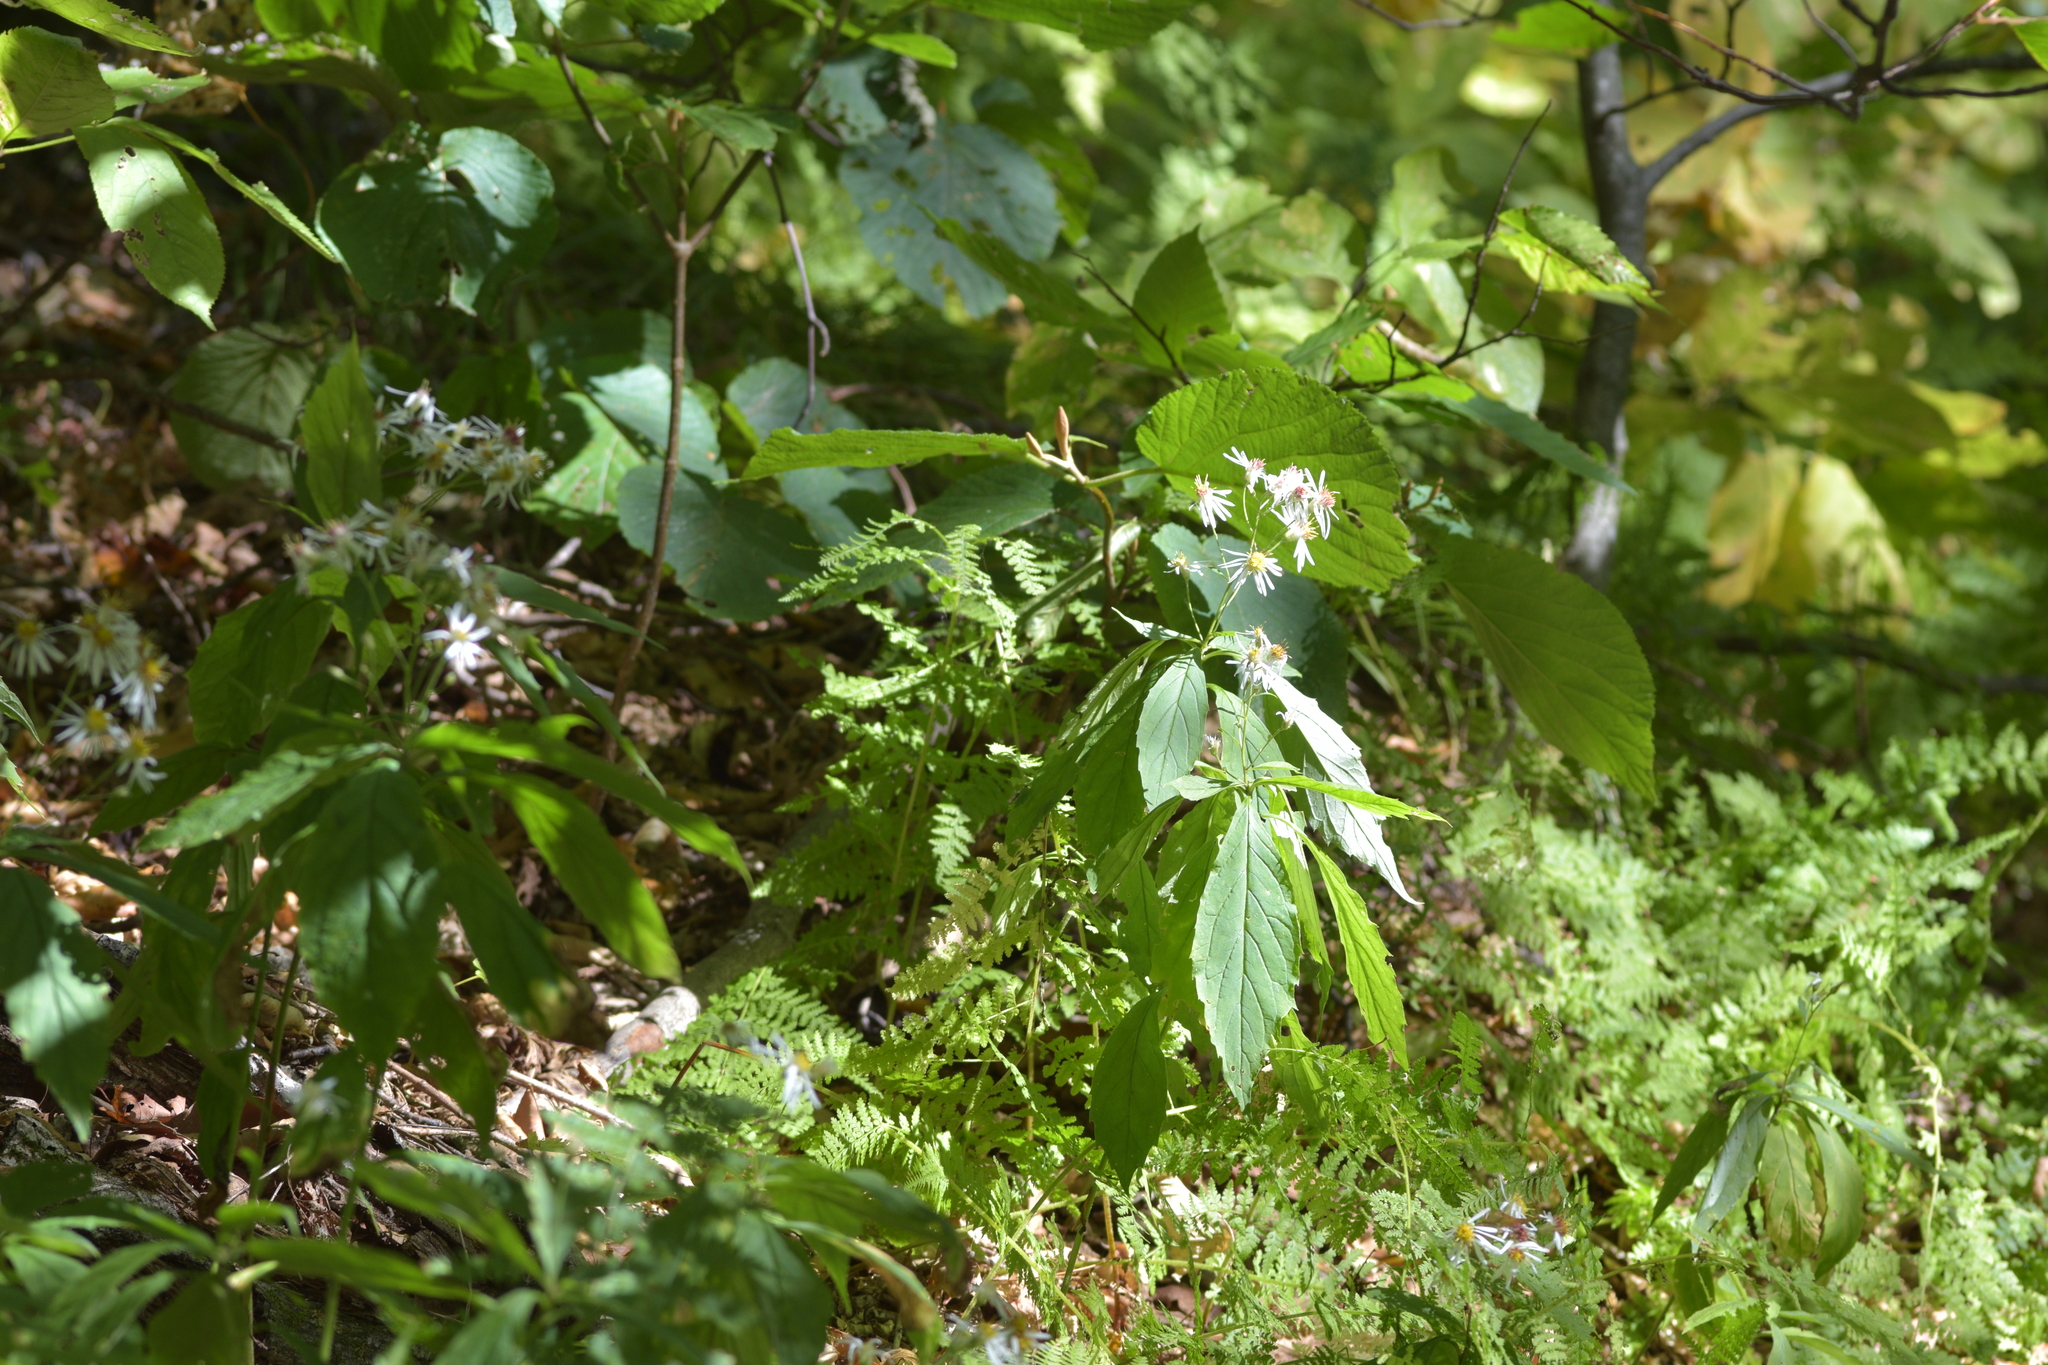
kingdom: Plantae
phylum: Tracheophyta
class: Magnoliopsida
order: Asterales
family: Asteraceae
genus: Oclemena
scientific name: Oclemena acuminata
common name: Mountain aster
